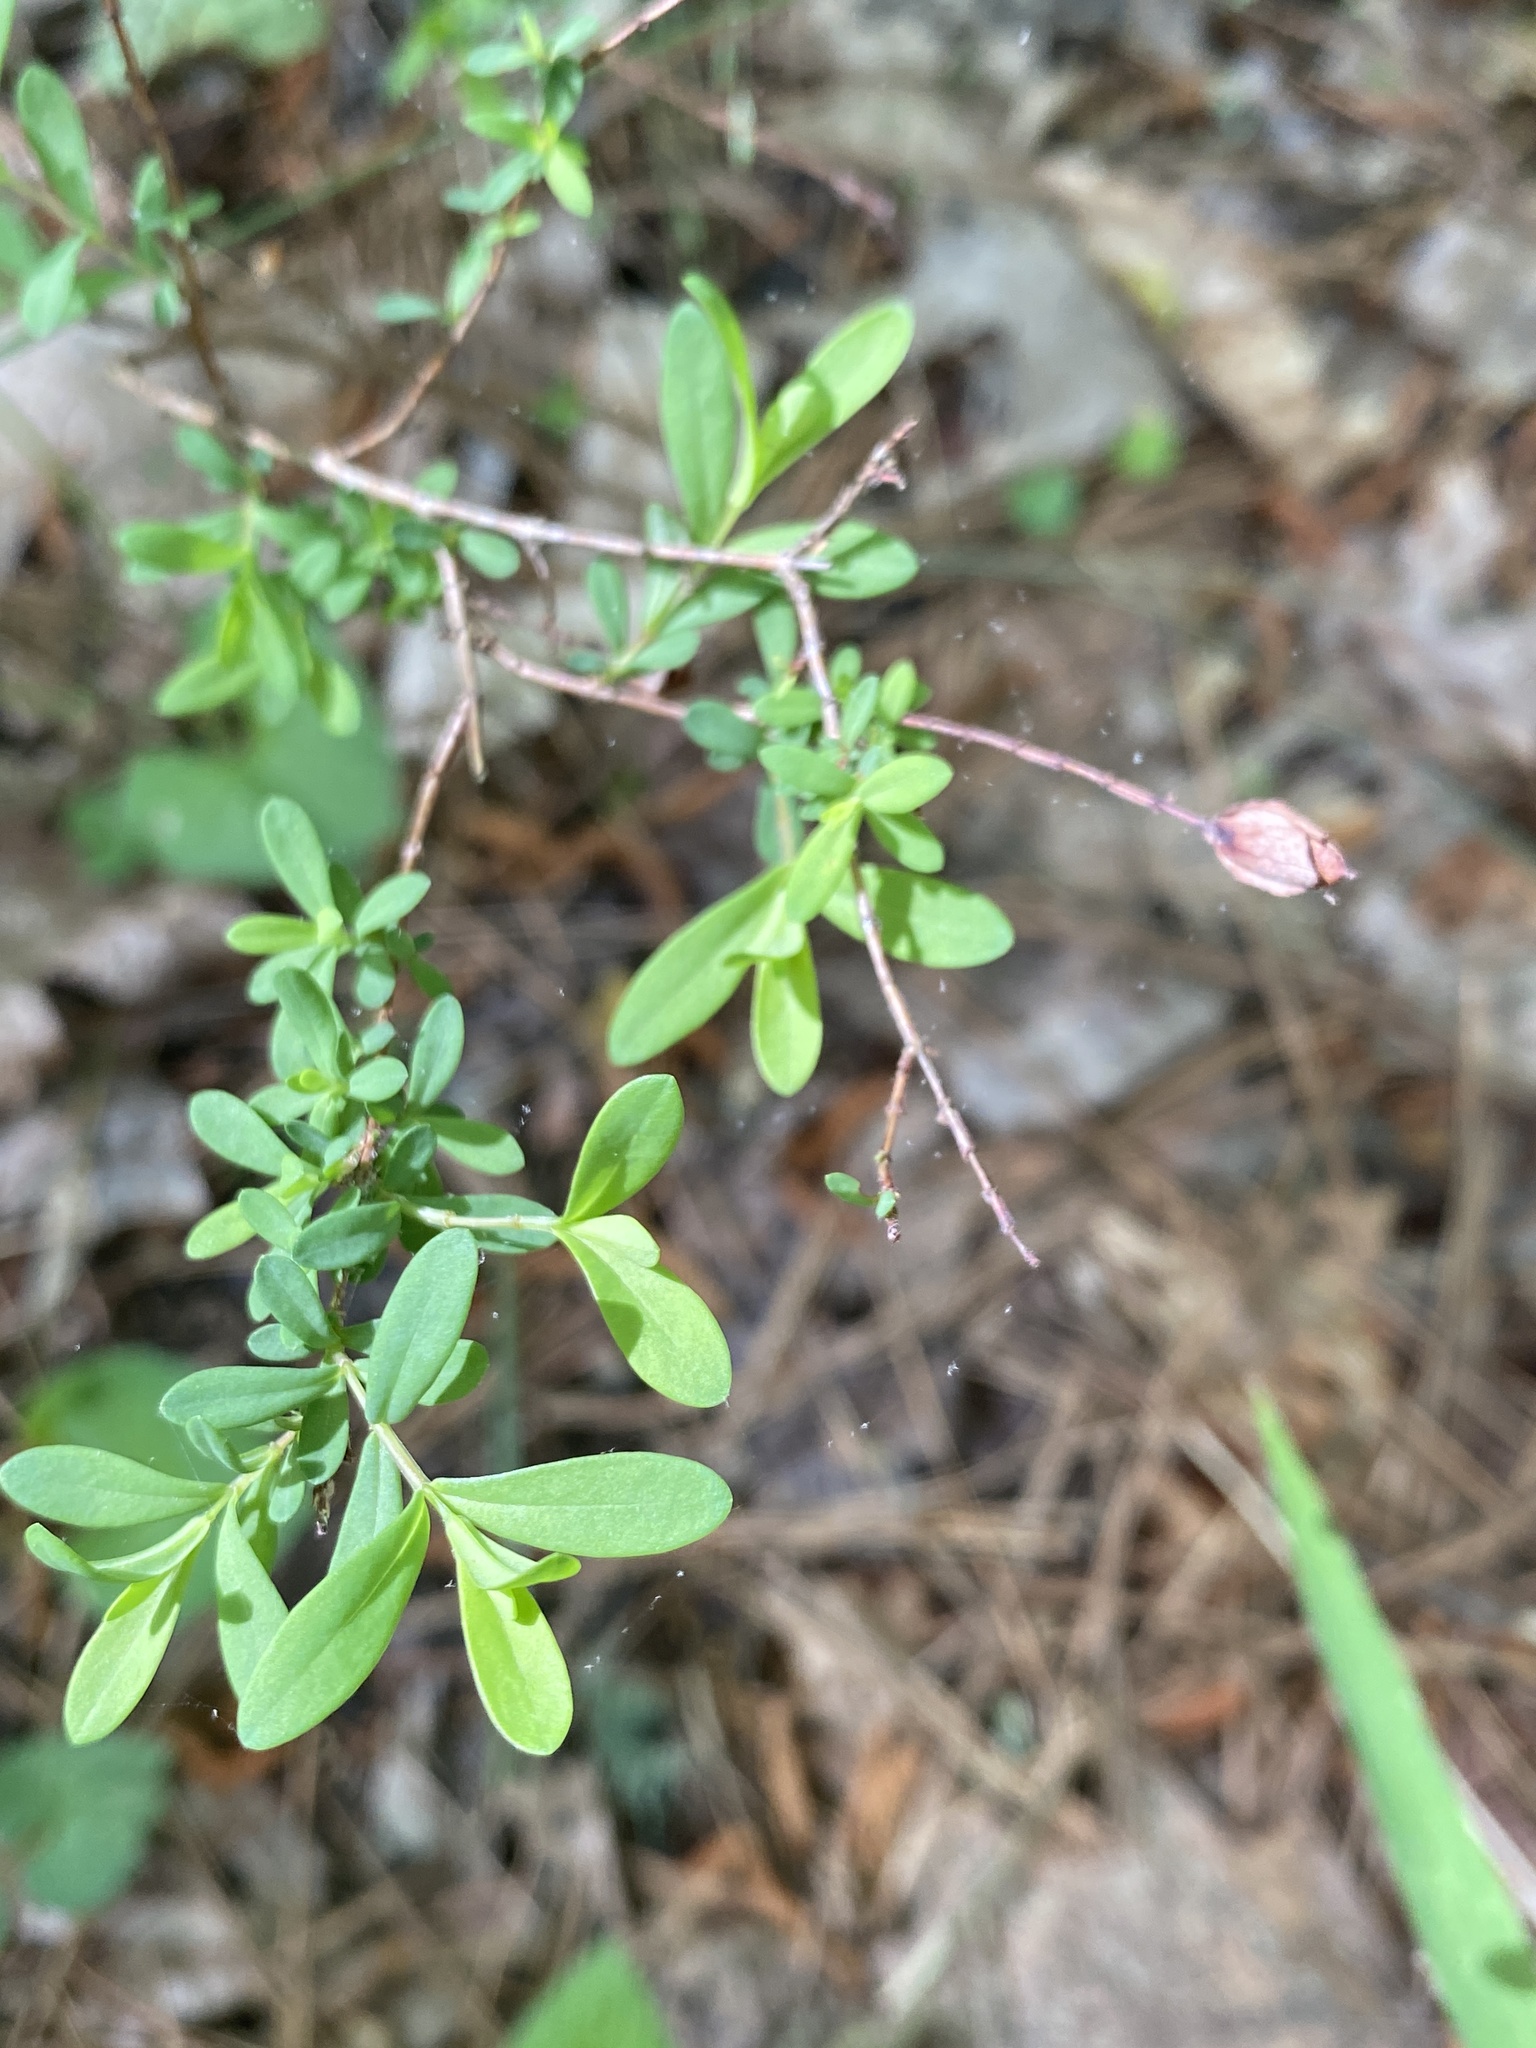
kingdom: Plantae
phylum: Tracheophyta
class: Magnoliopsida
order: Malpighiales
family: Hypericaceae
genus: Hypericum
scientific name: Hypericum hypericoides
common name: St. andrew's cross
